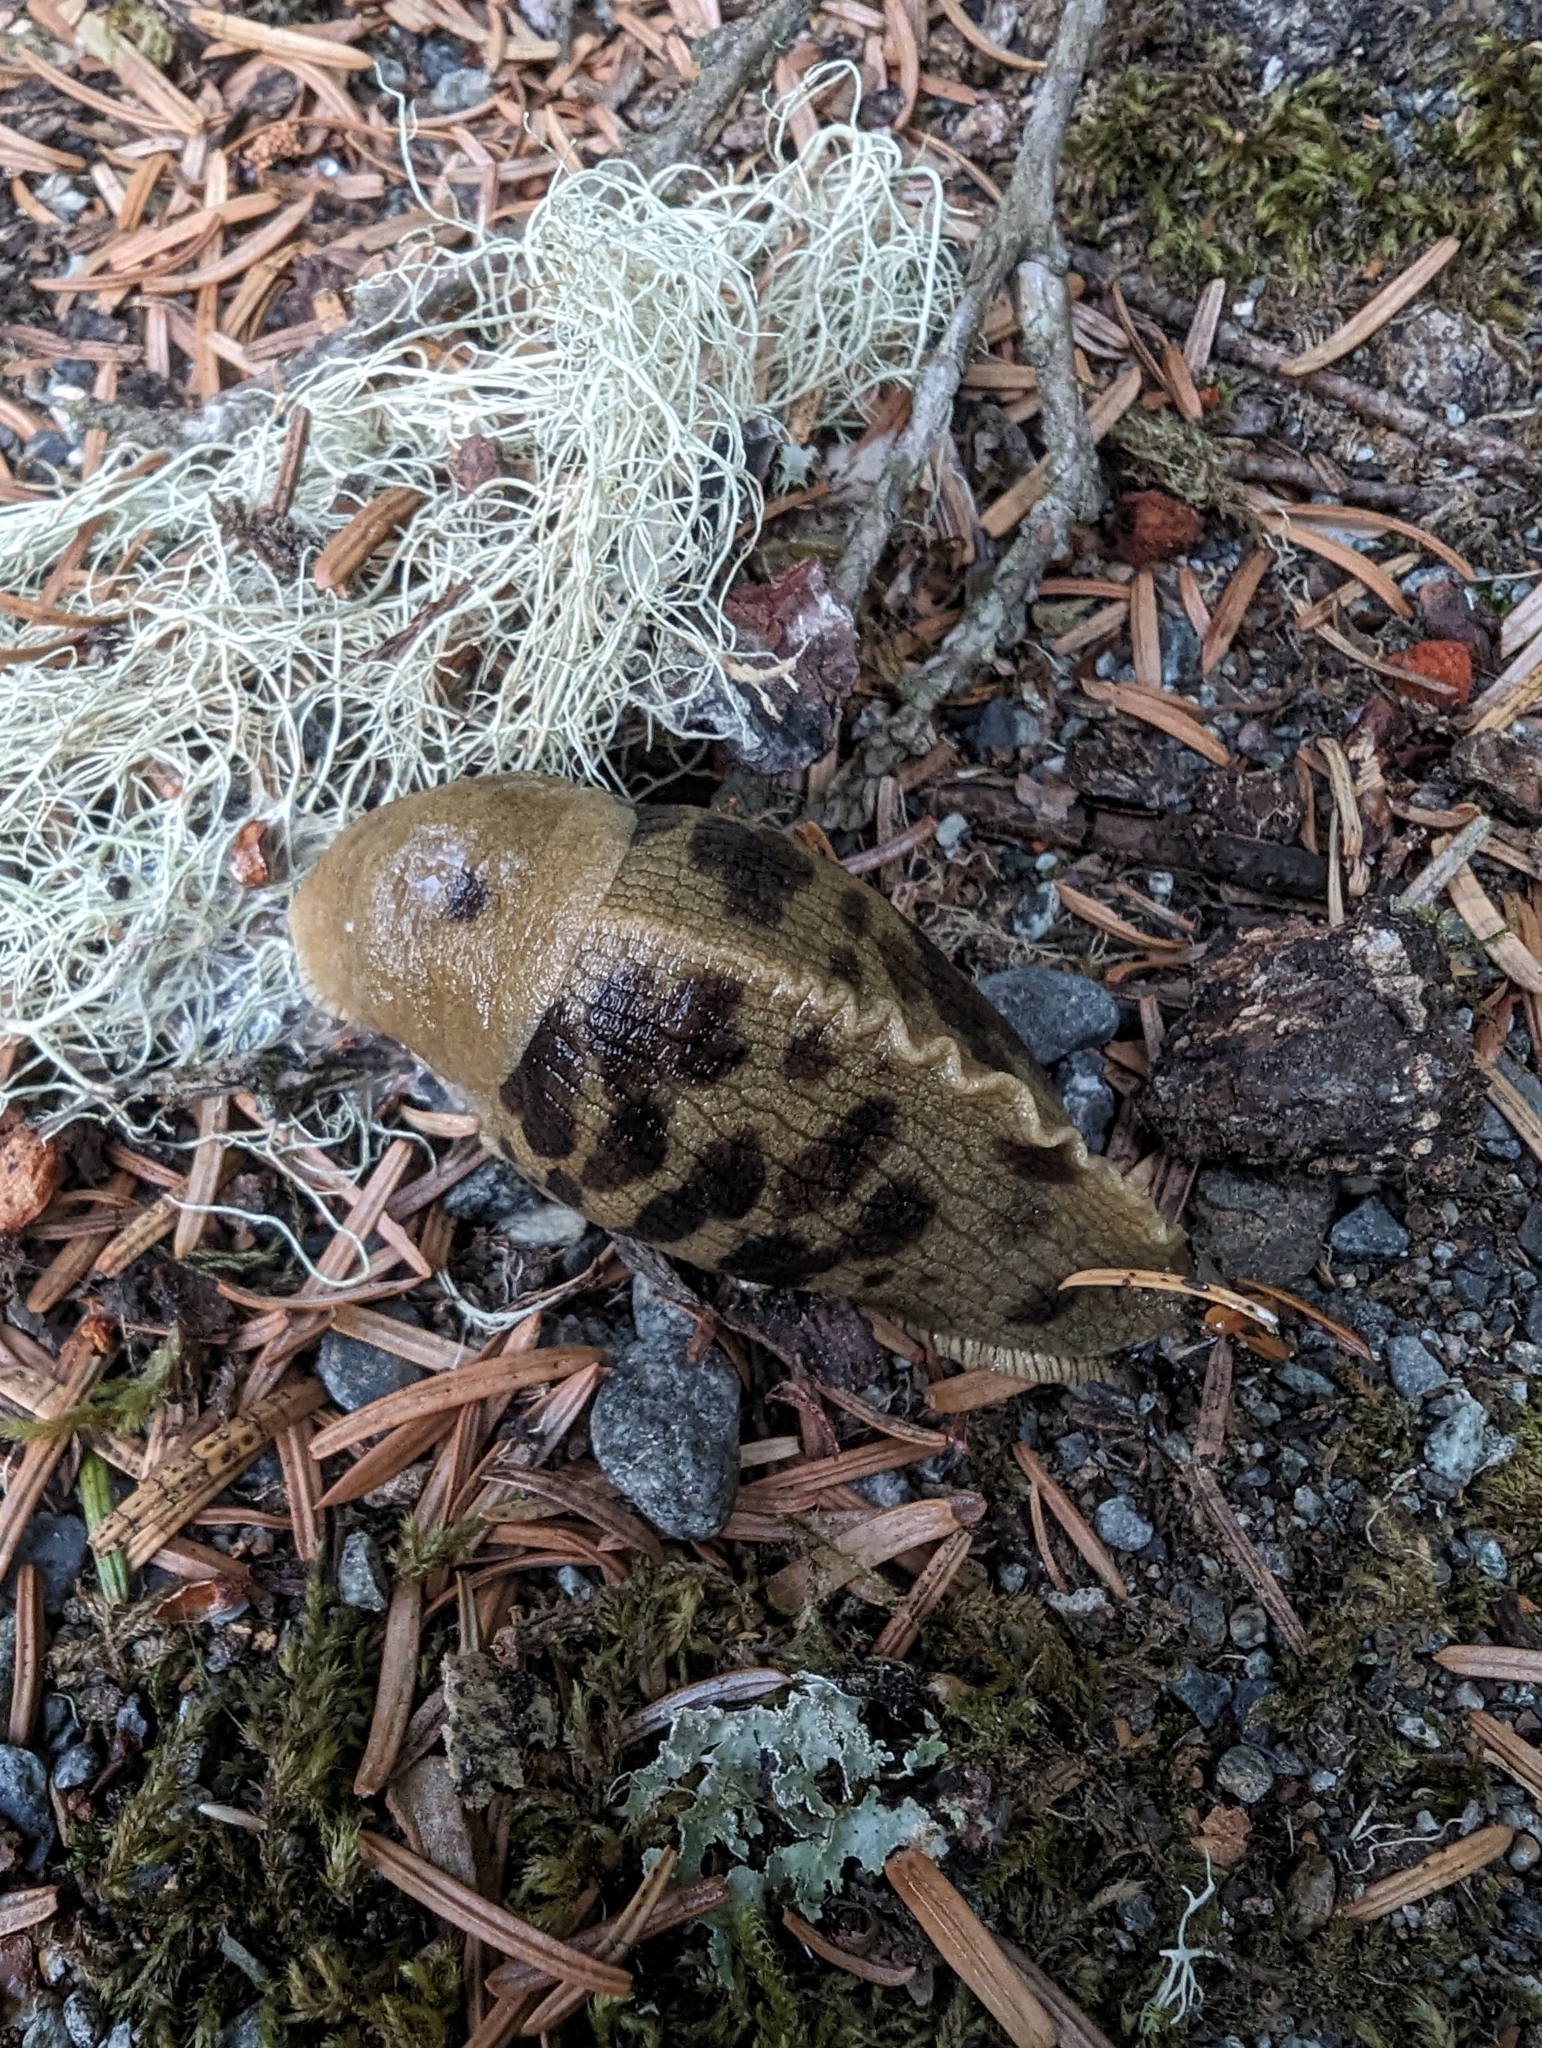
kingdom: Animalia
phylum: Mollusca
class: Gastropoda
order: Stylommatophora
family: Ariolimacidae
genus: Ariolimax
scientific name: Ariolimax columbianus
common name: Pacific banana slug
